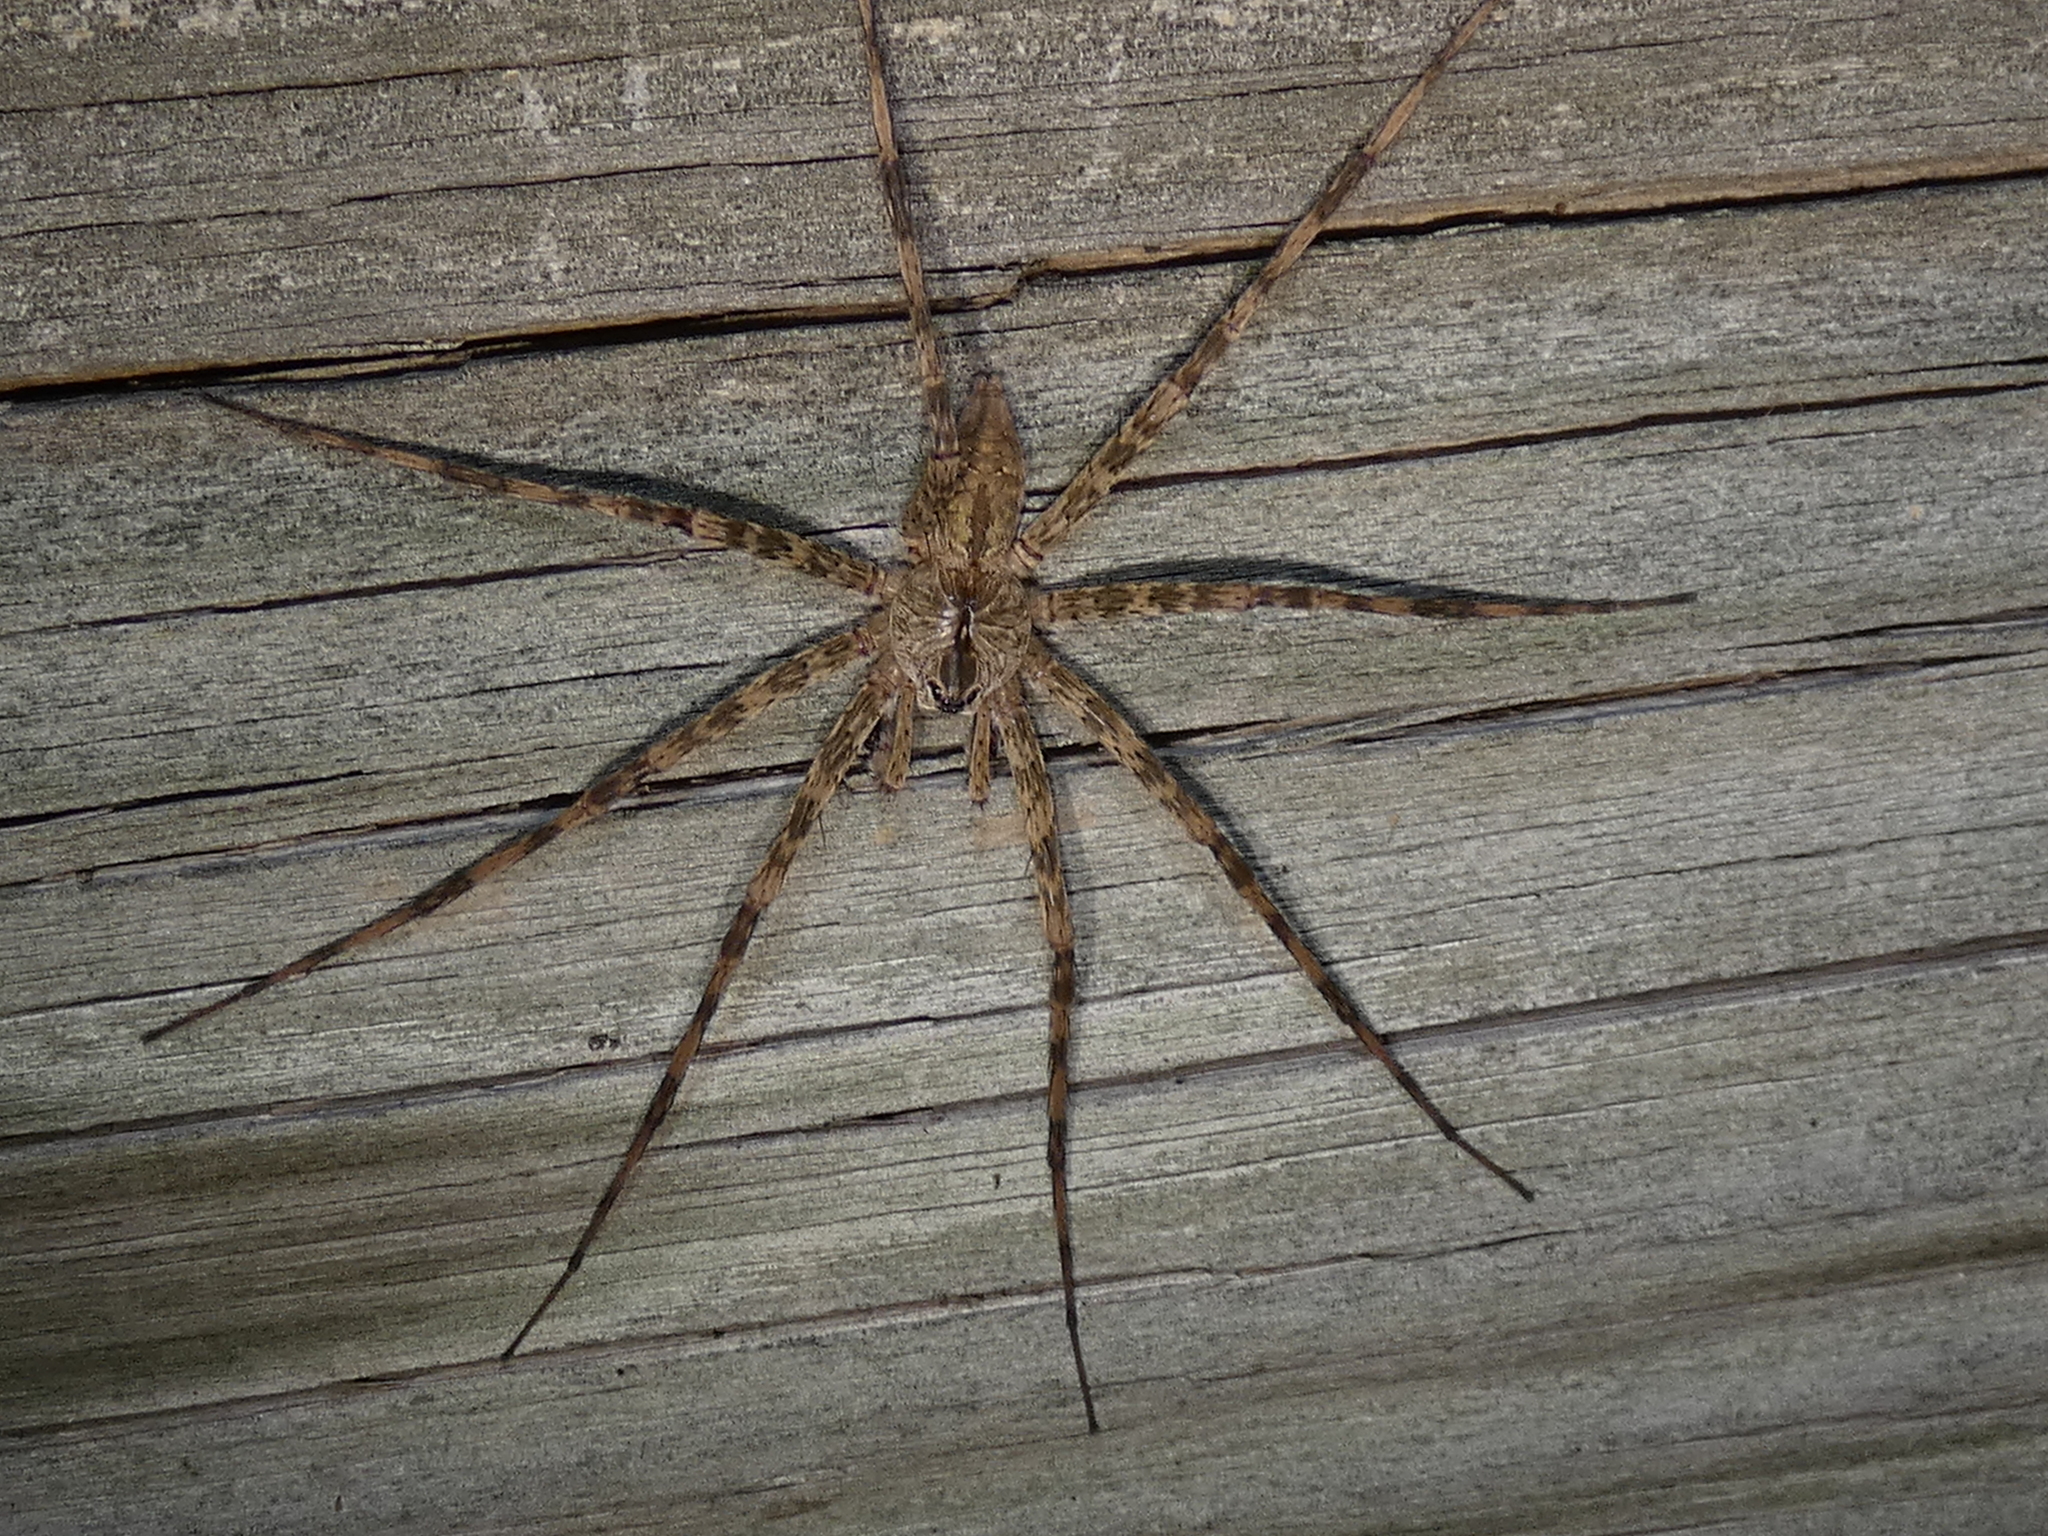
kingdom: Animalia
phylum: Arthropoda
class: Arachnida
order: Araneae
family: Pisauridae
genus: Dolomedes
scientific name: Dolomedes albineus
